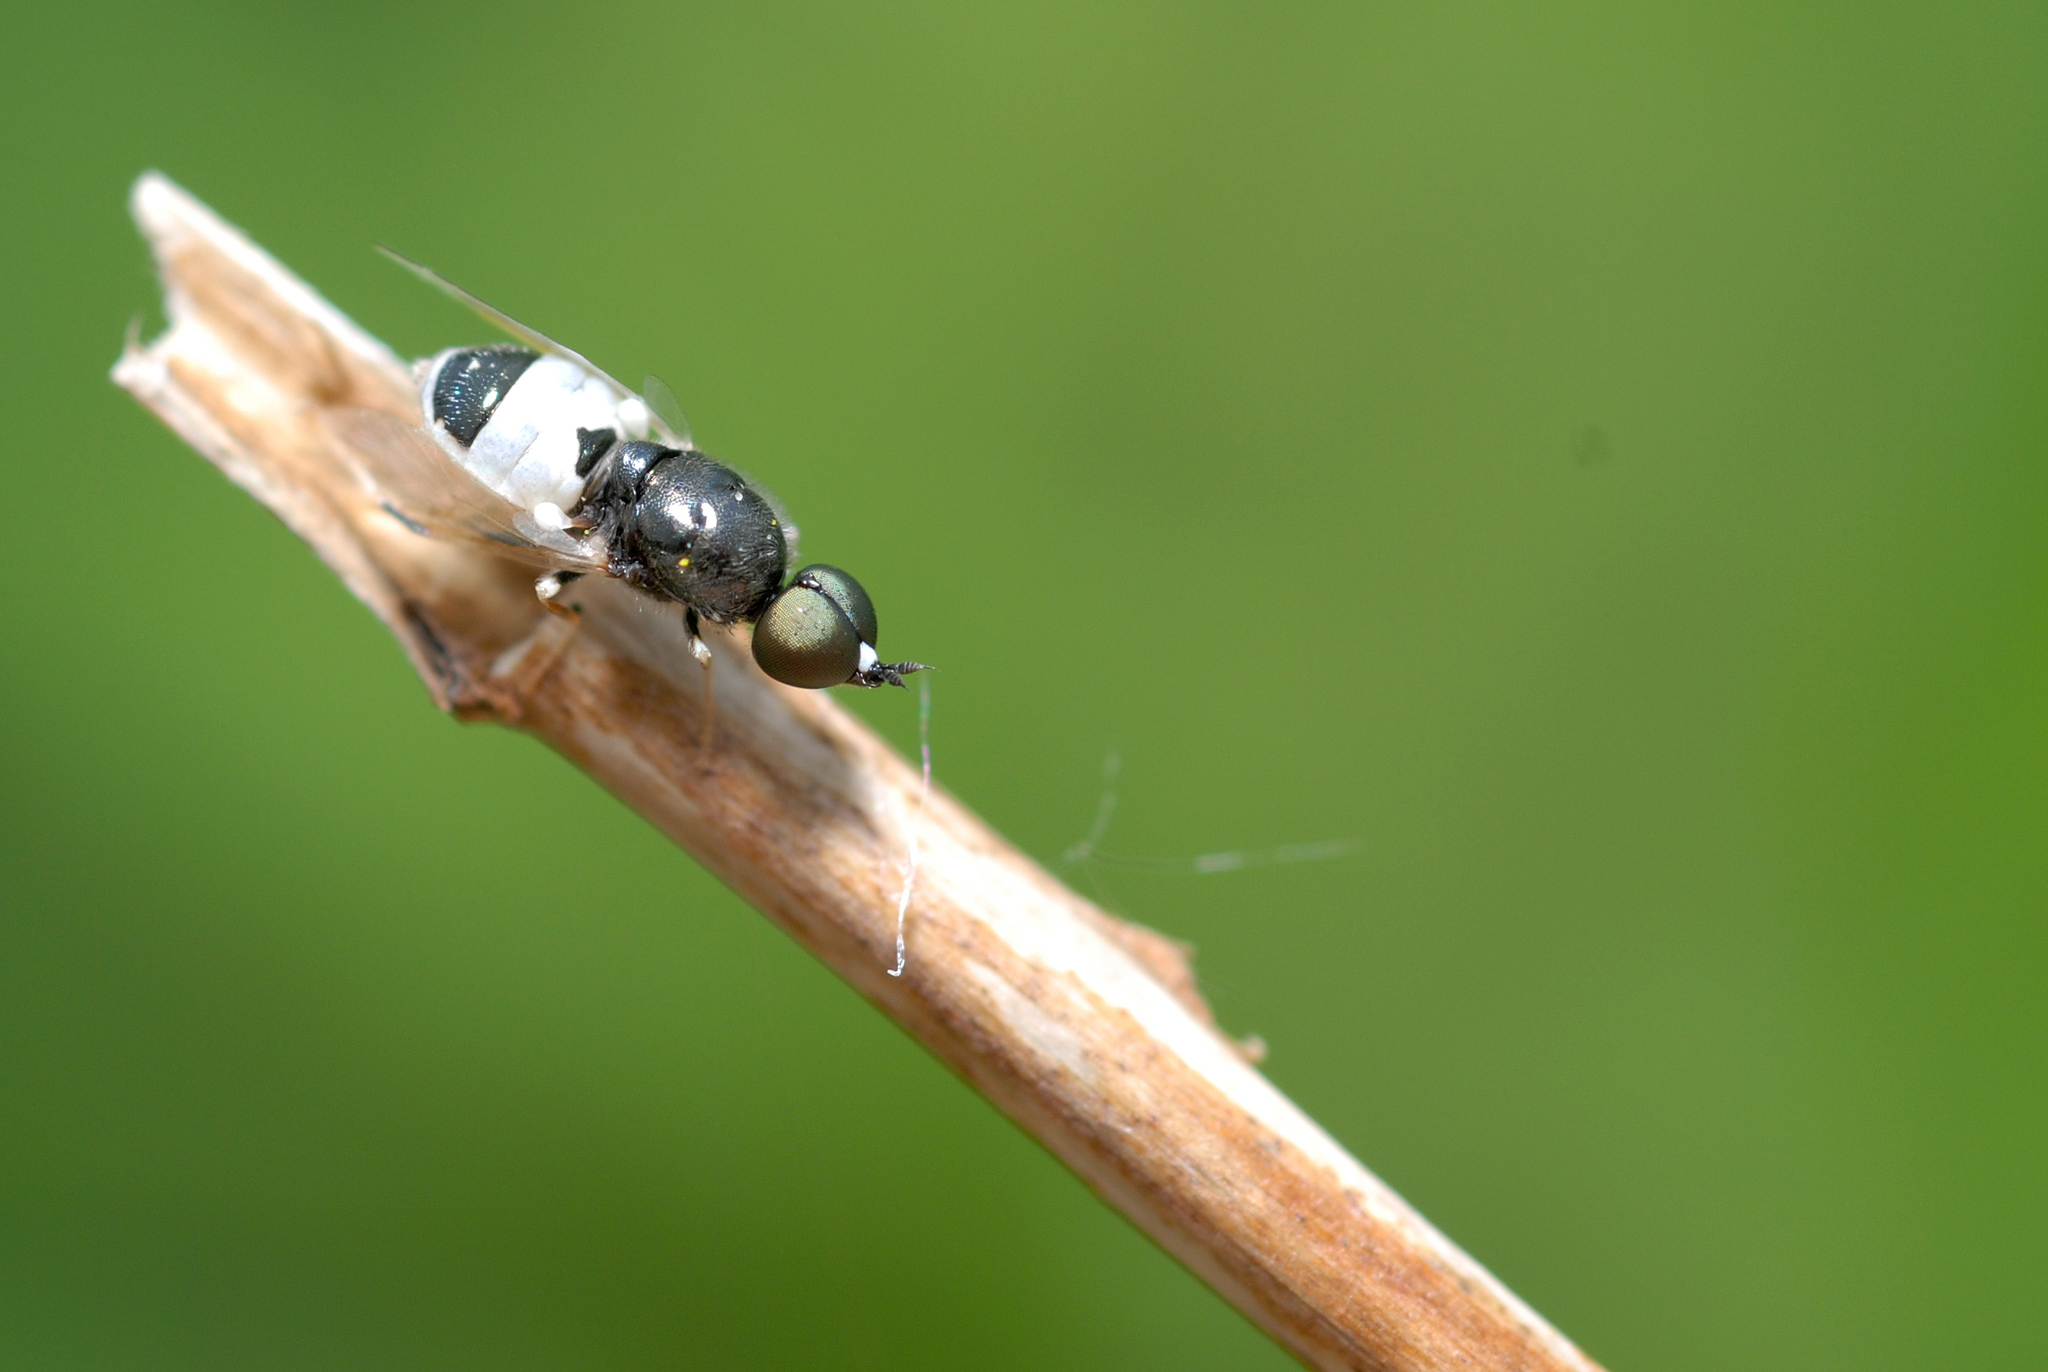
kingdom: Animalia
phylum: Arthropoda
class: Insecta
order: Diptera
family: Stratiomyidae
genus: Nemotelus
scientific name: Nemotelus pantherina
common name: Fen snout
